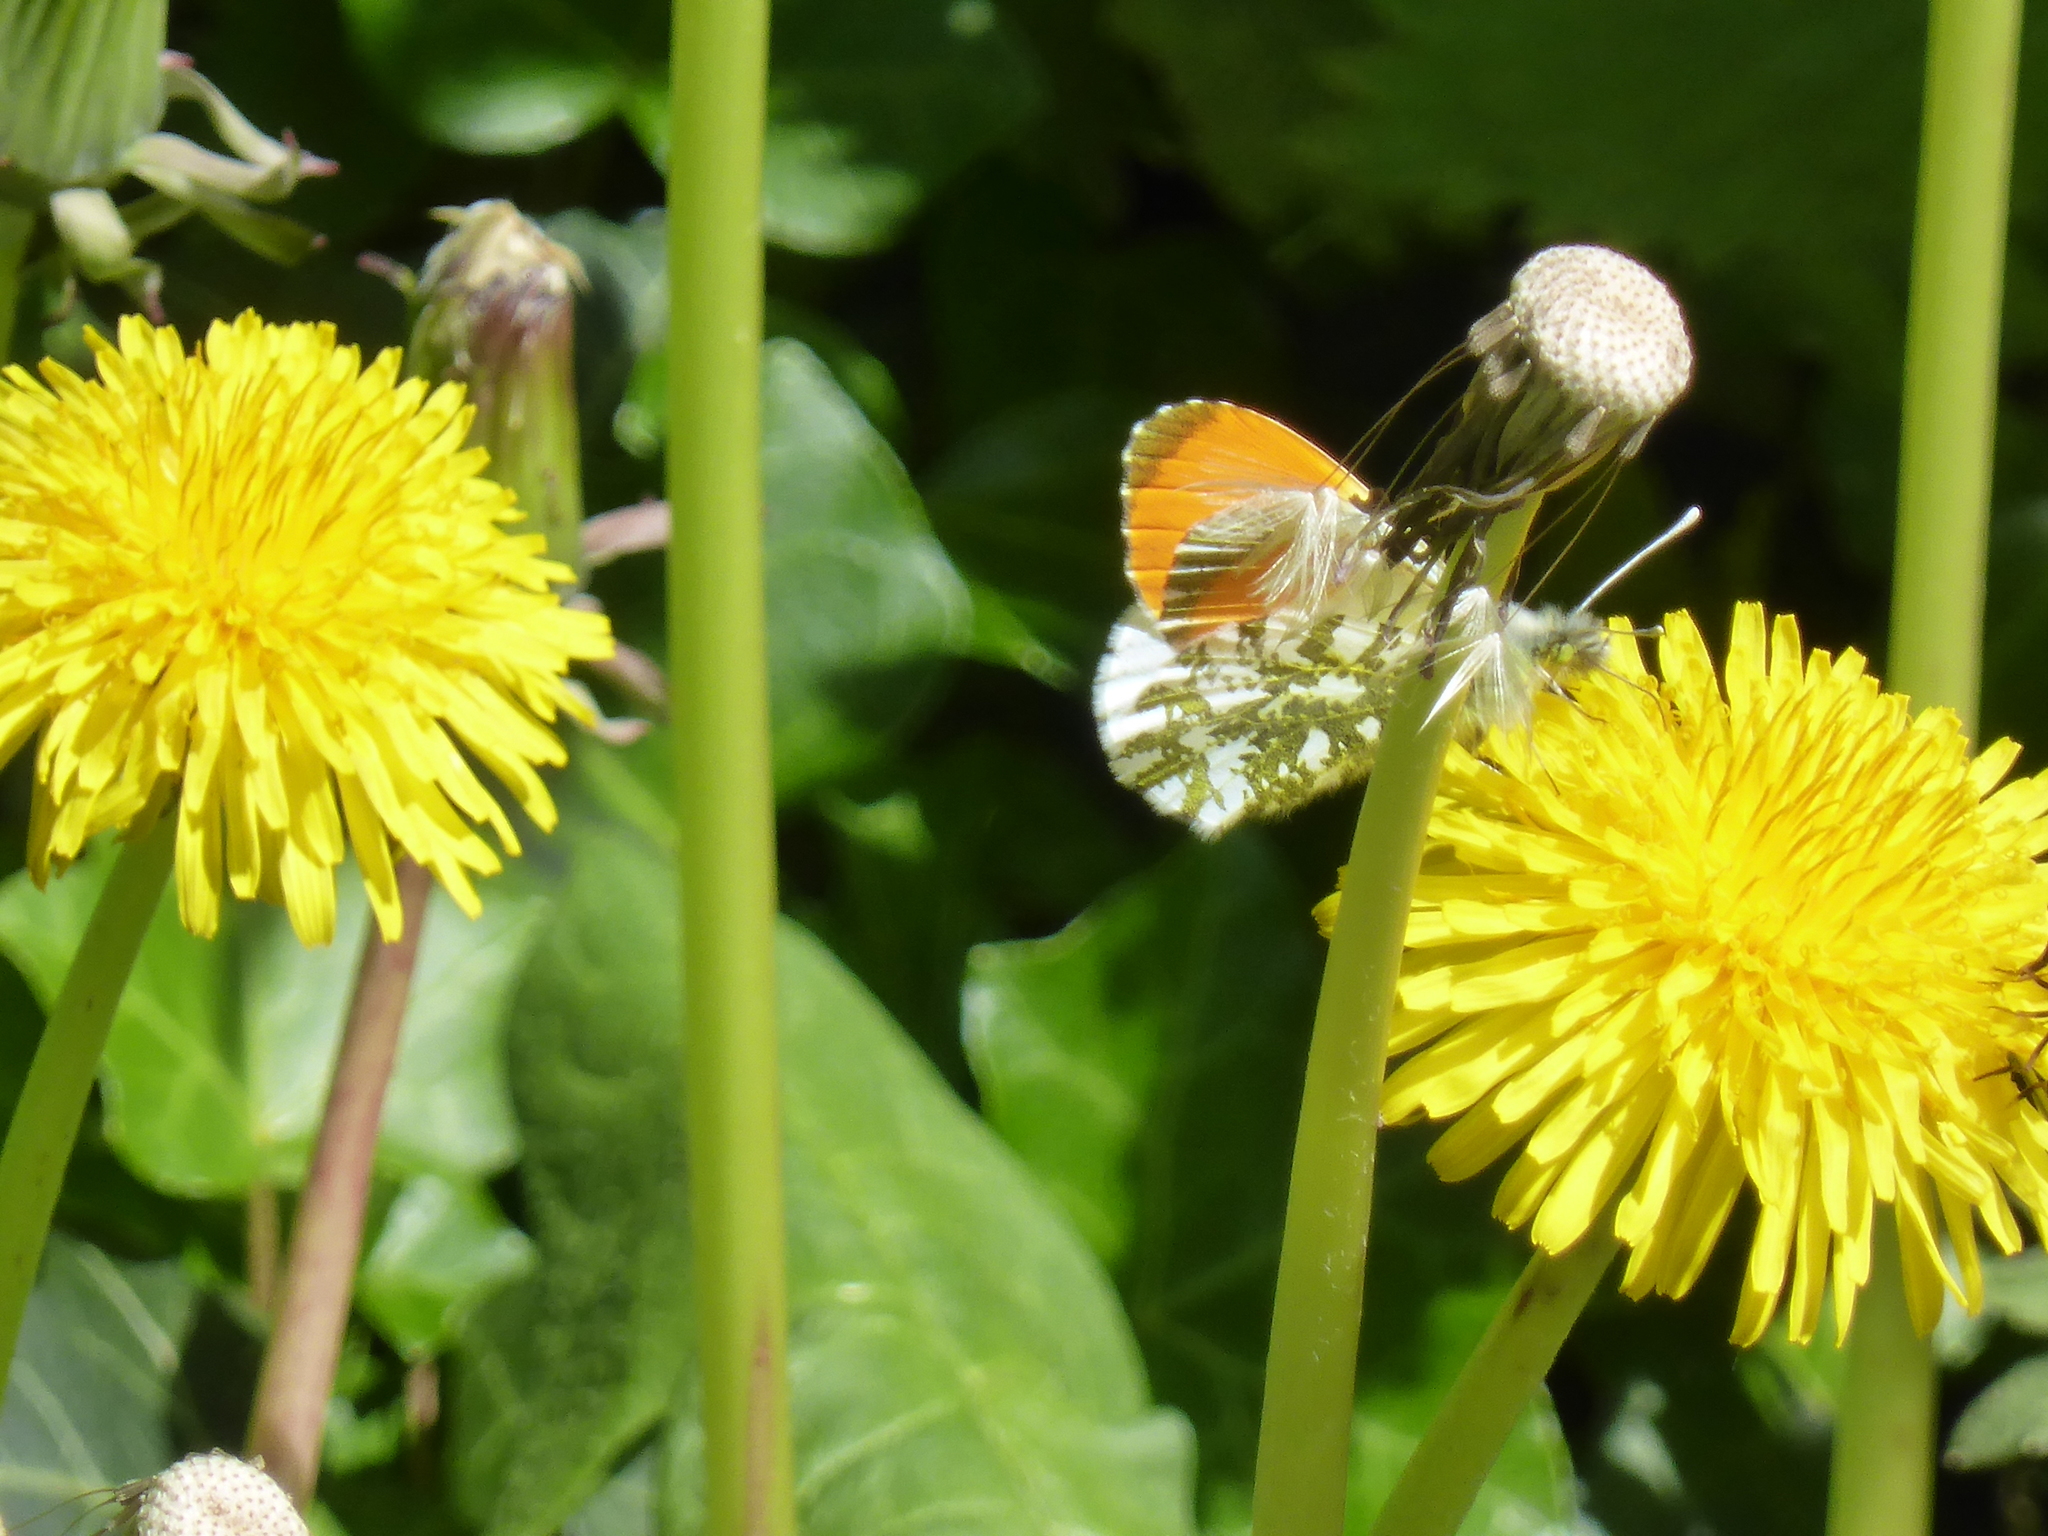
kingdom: Animalia
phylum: Arthropoda
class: Insecta
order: Lepidoptera
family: Pieridae
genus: Anthocharis
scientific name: Anthocharis cardamines
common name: Orange-tip
